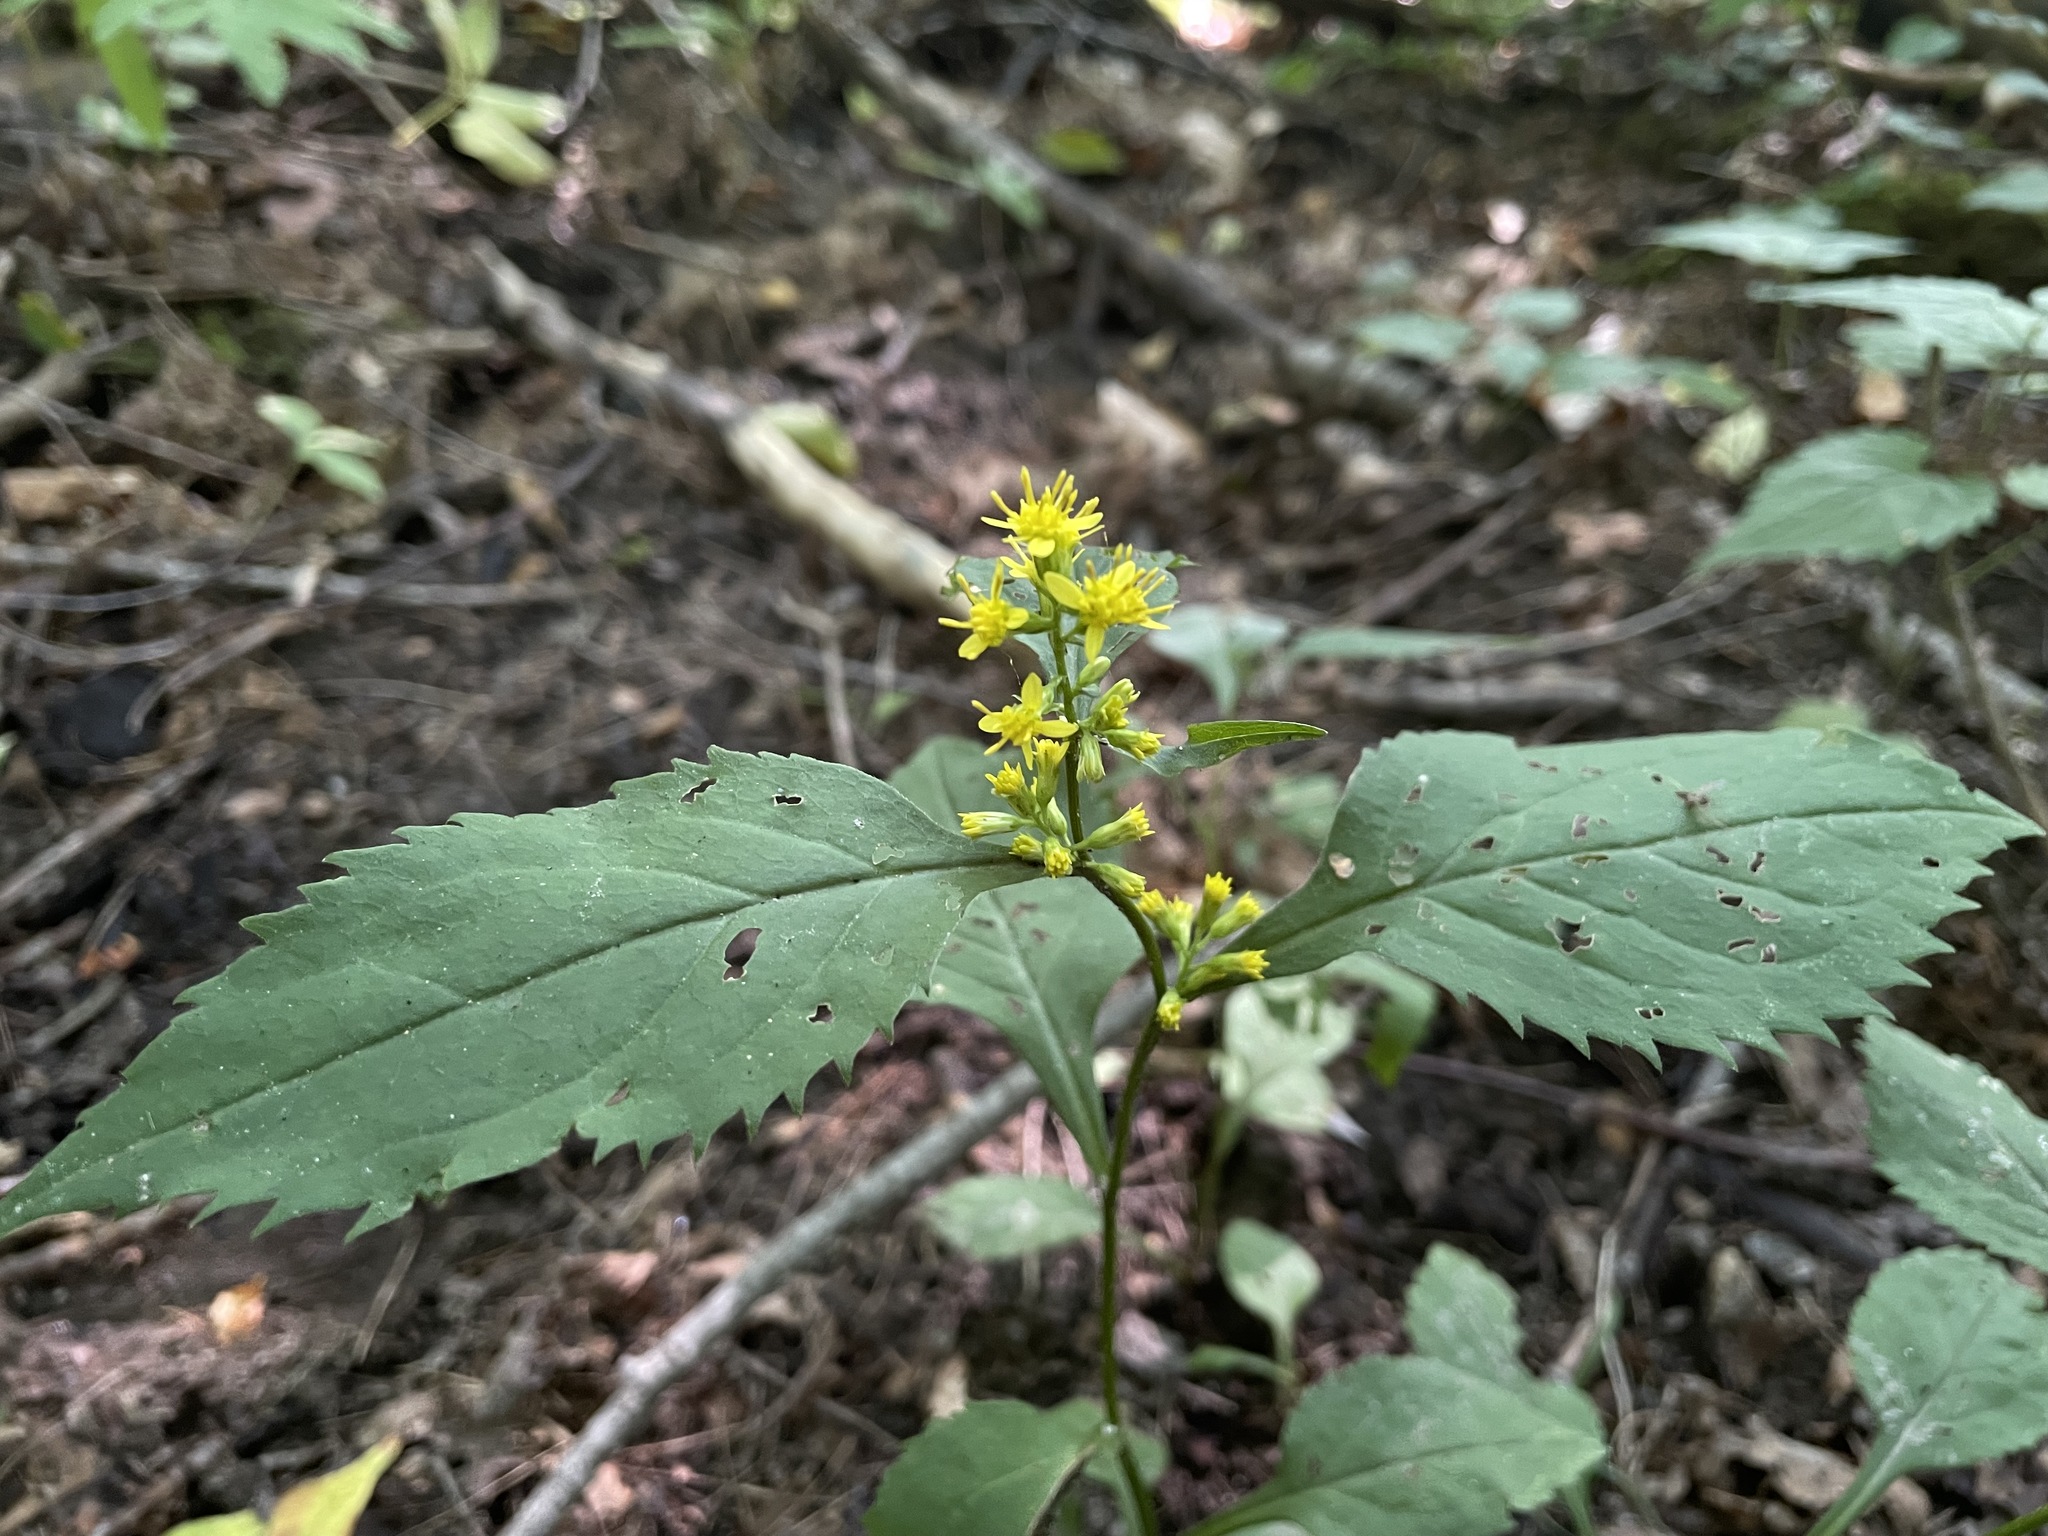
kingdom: Plantae
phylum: Tracheophyta
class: Magnoliopsida
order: Asterales
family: Asteraceae
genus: Solidago
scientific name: Solidago flexicaulis
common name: Zig-zag goldenrod
